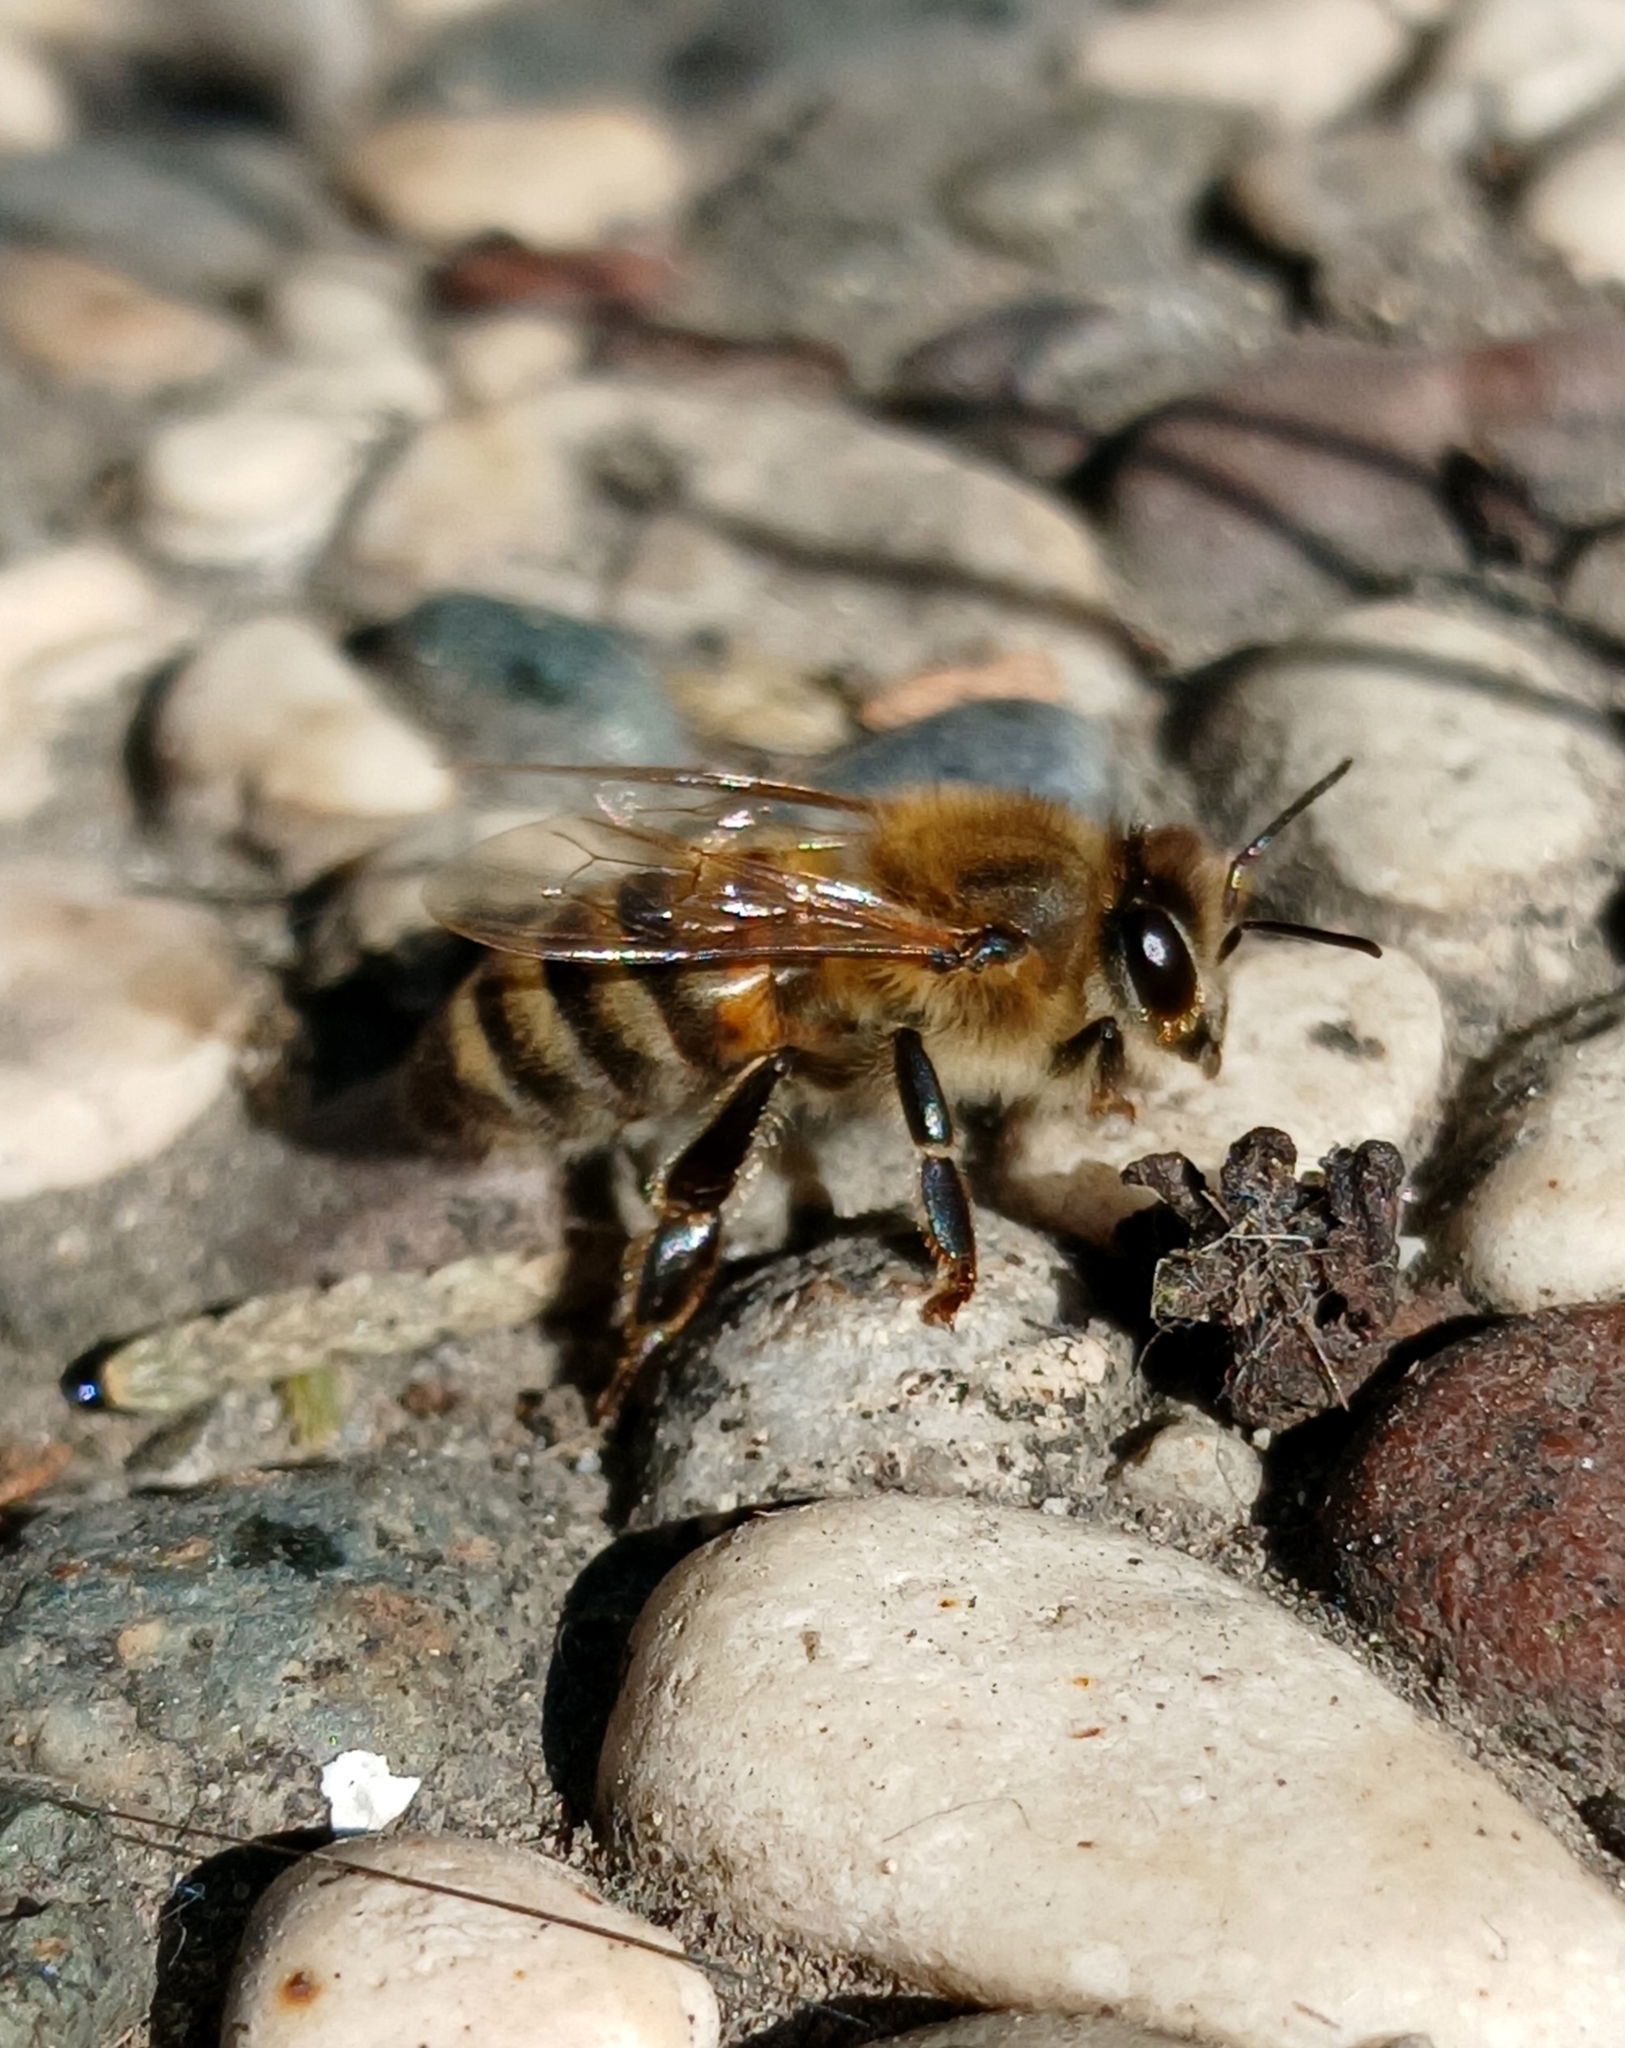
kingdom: Animalia
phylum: Arthropoda
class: Insecta
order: Hymenoptera
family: Apidae
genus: Apis
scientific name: Apis mellifera
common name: Honey bee
